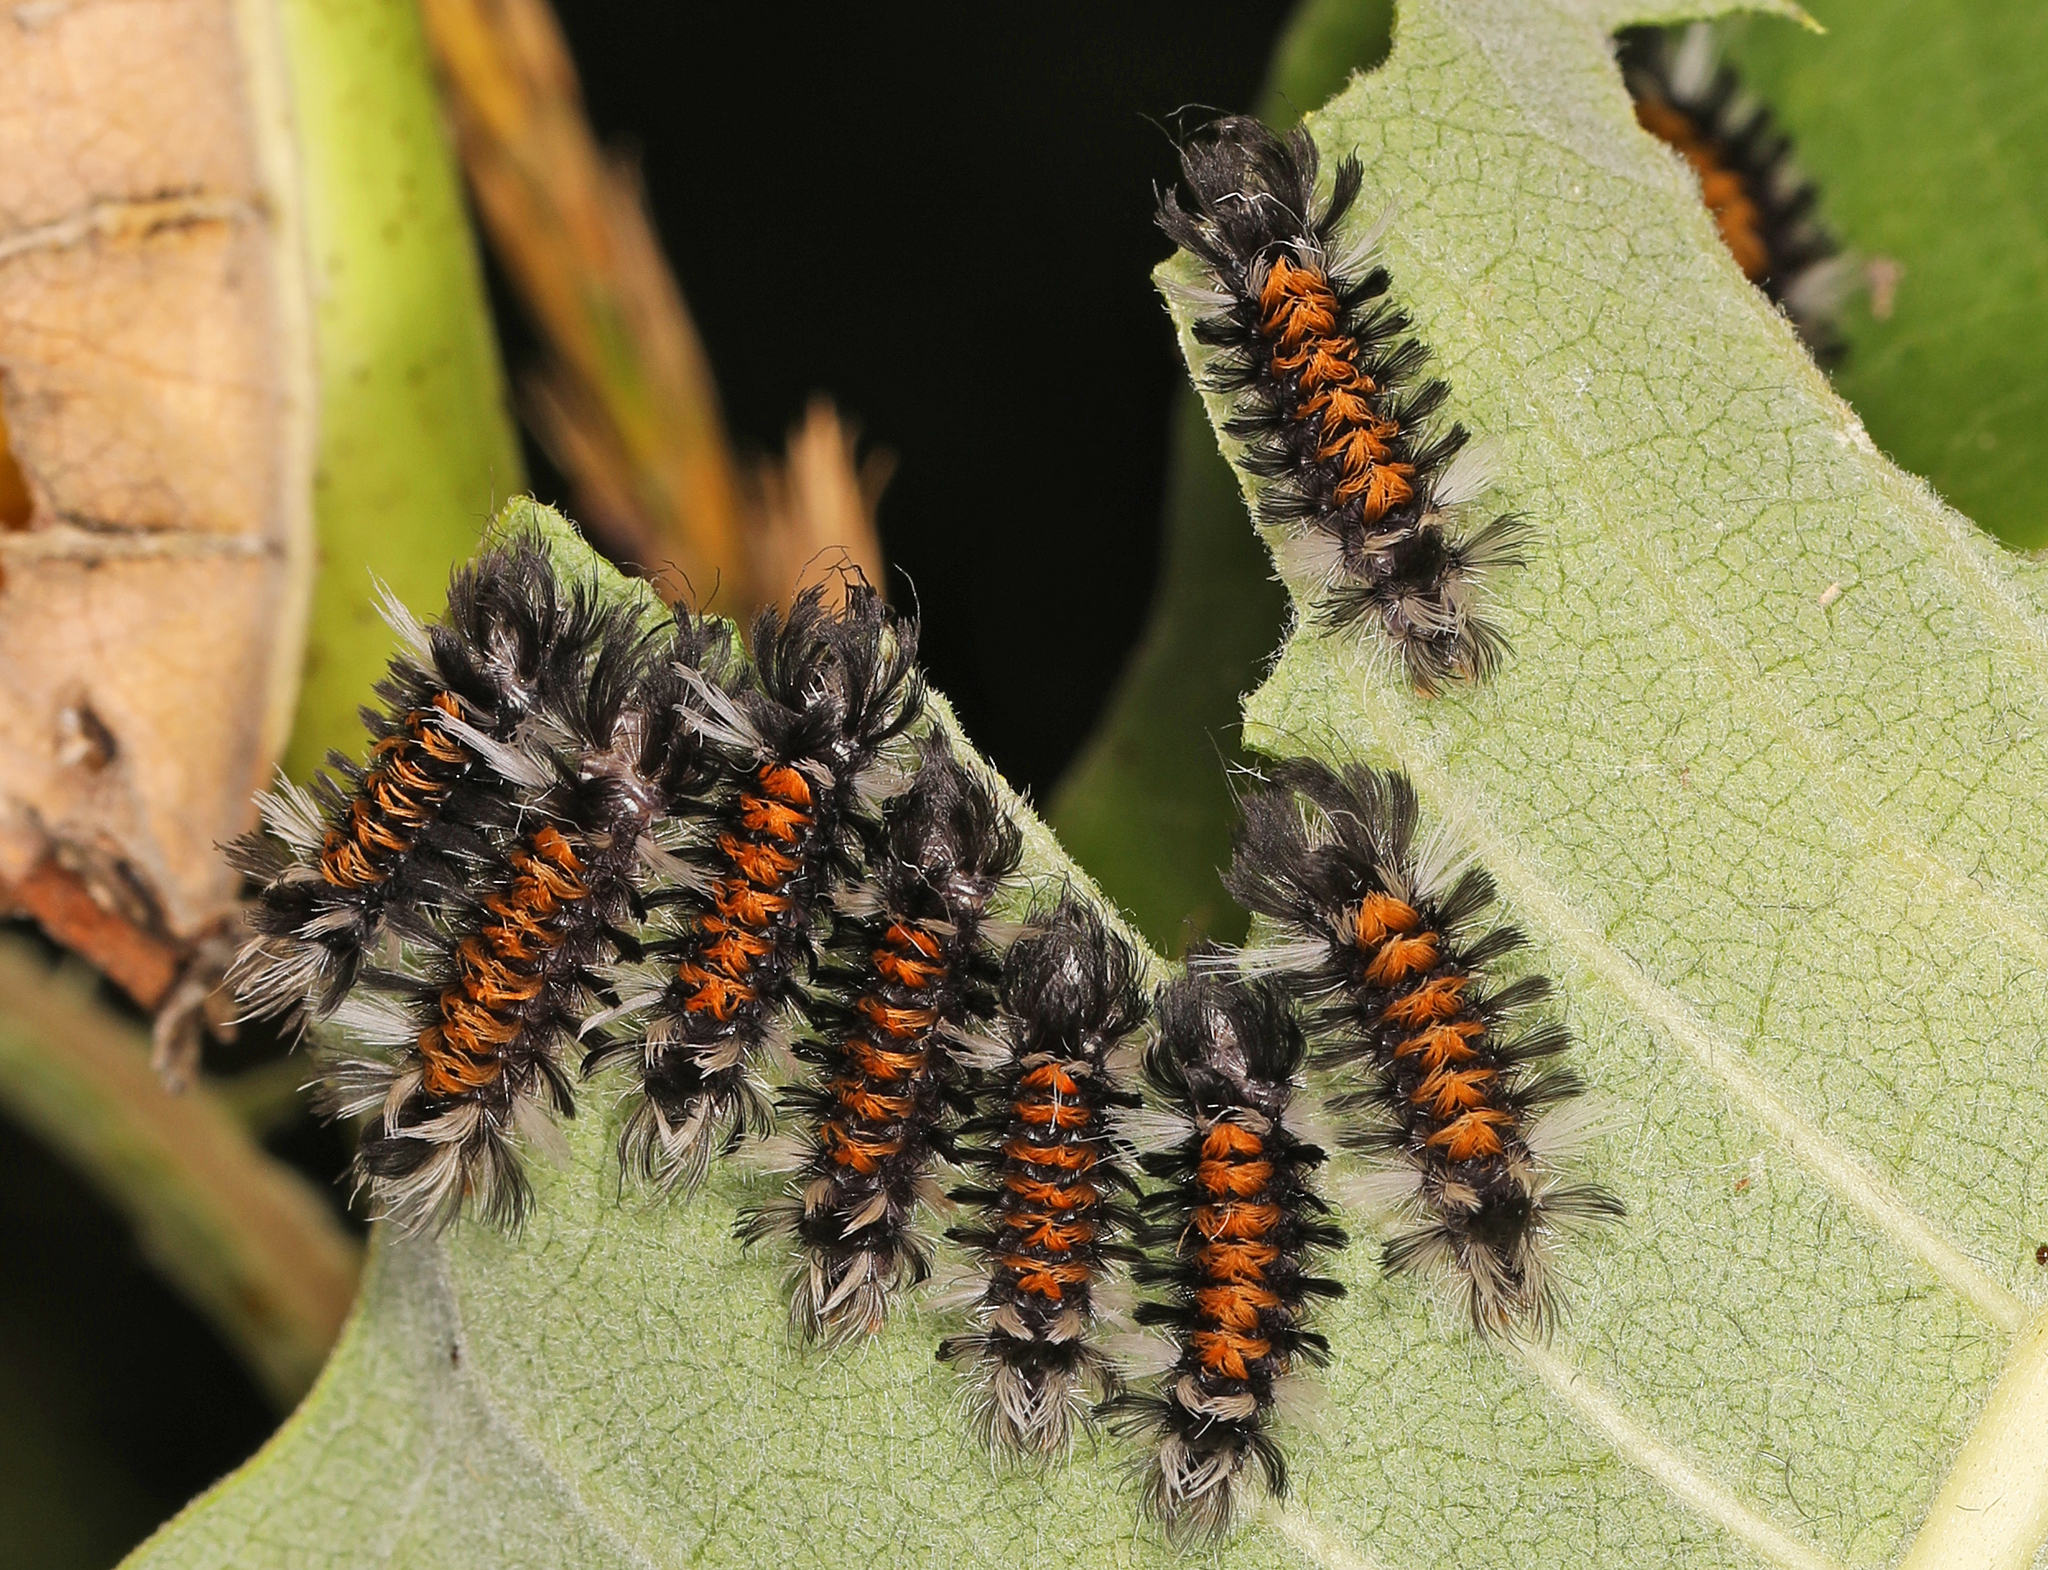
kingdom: Animalia
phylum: Arthropoda
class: Insecta
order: Lepidoptera
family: Erebidae
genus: Euchaetes
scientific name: Euchaetes egle
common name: Milkweed tussock moth
